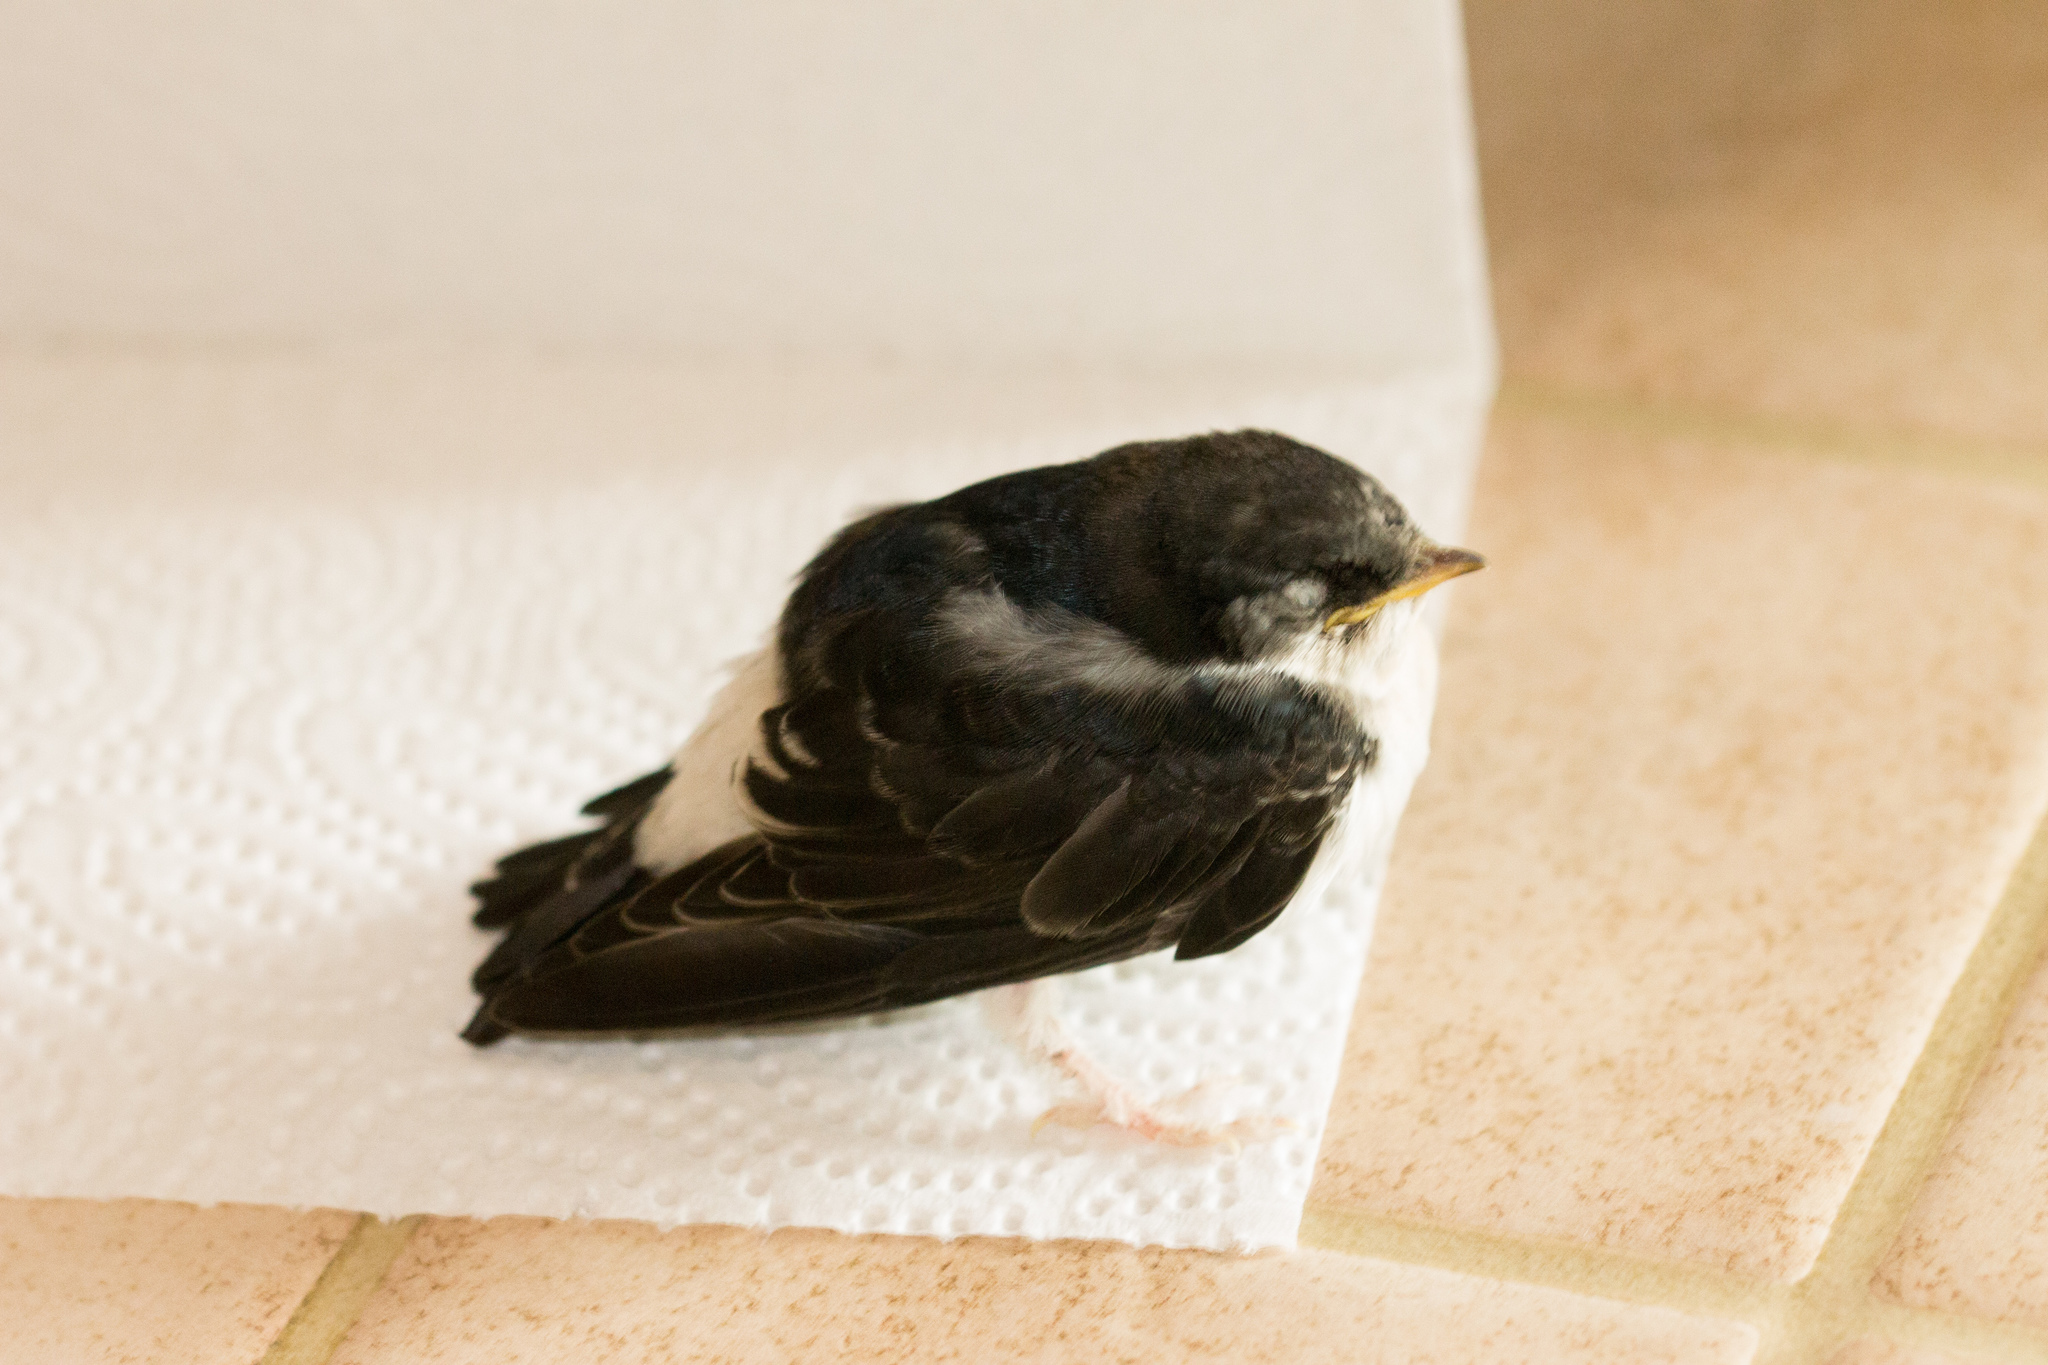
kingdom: Animalia
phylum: Chordata
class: Aves
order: Passeriformes
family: Hirundinidae
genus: Delichon
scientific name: Delichon urbicum
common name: Common house martin
